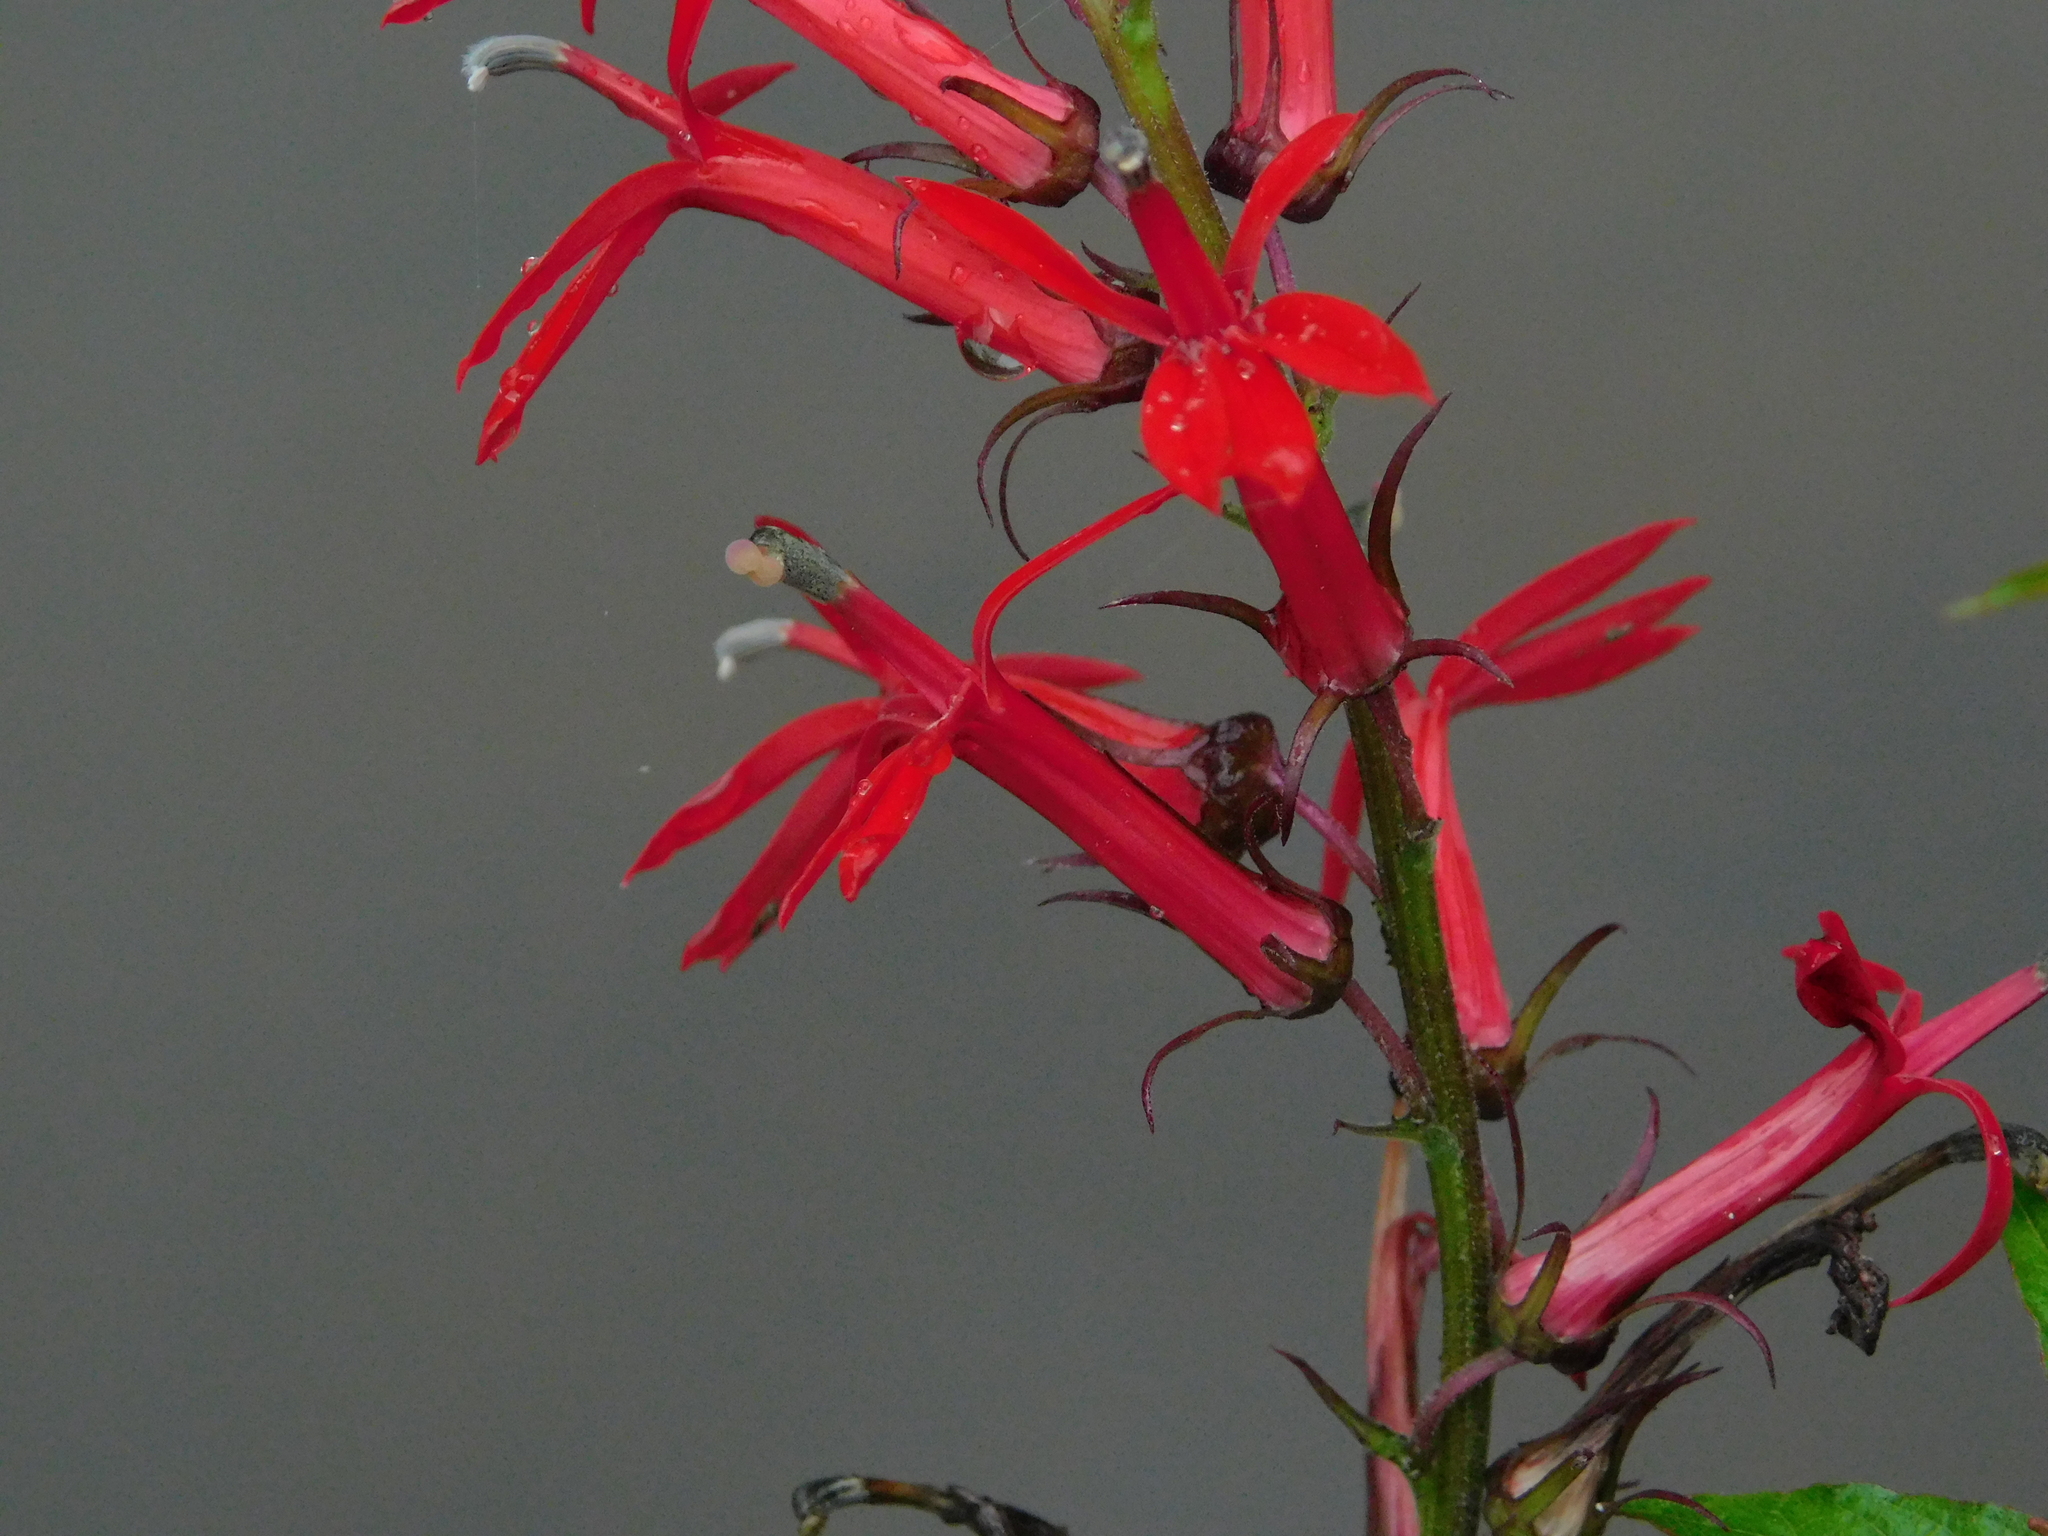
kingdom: Plantae
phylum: Tracheophyta
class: Magnoliopsida
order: Asterales
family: Campanulaceae
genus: Lobelia
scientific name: Lobelia cardinalis
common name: Cardinal flower
